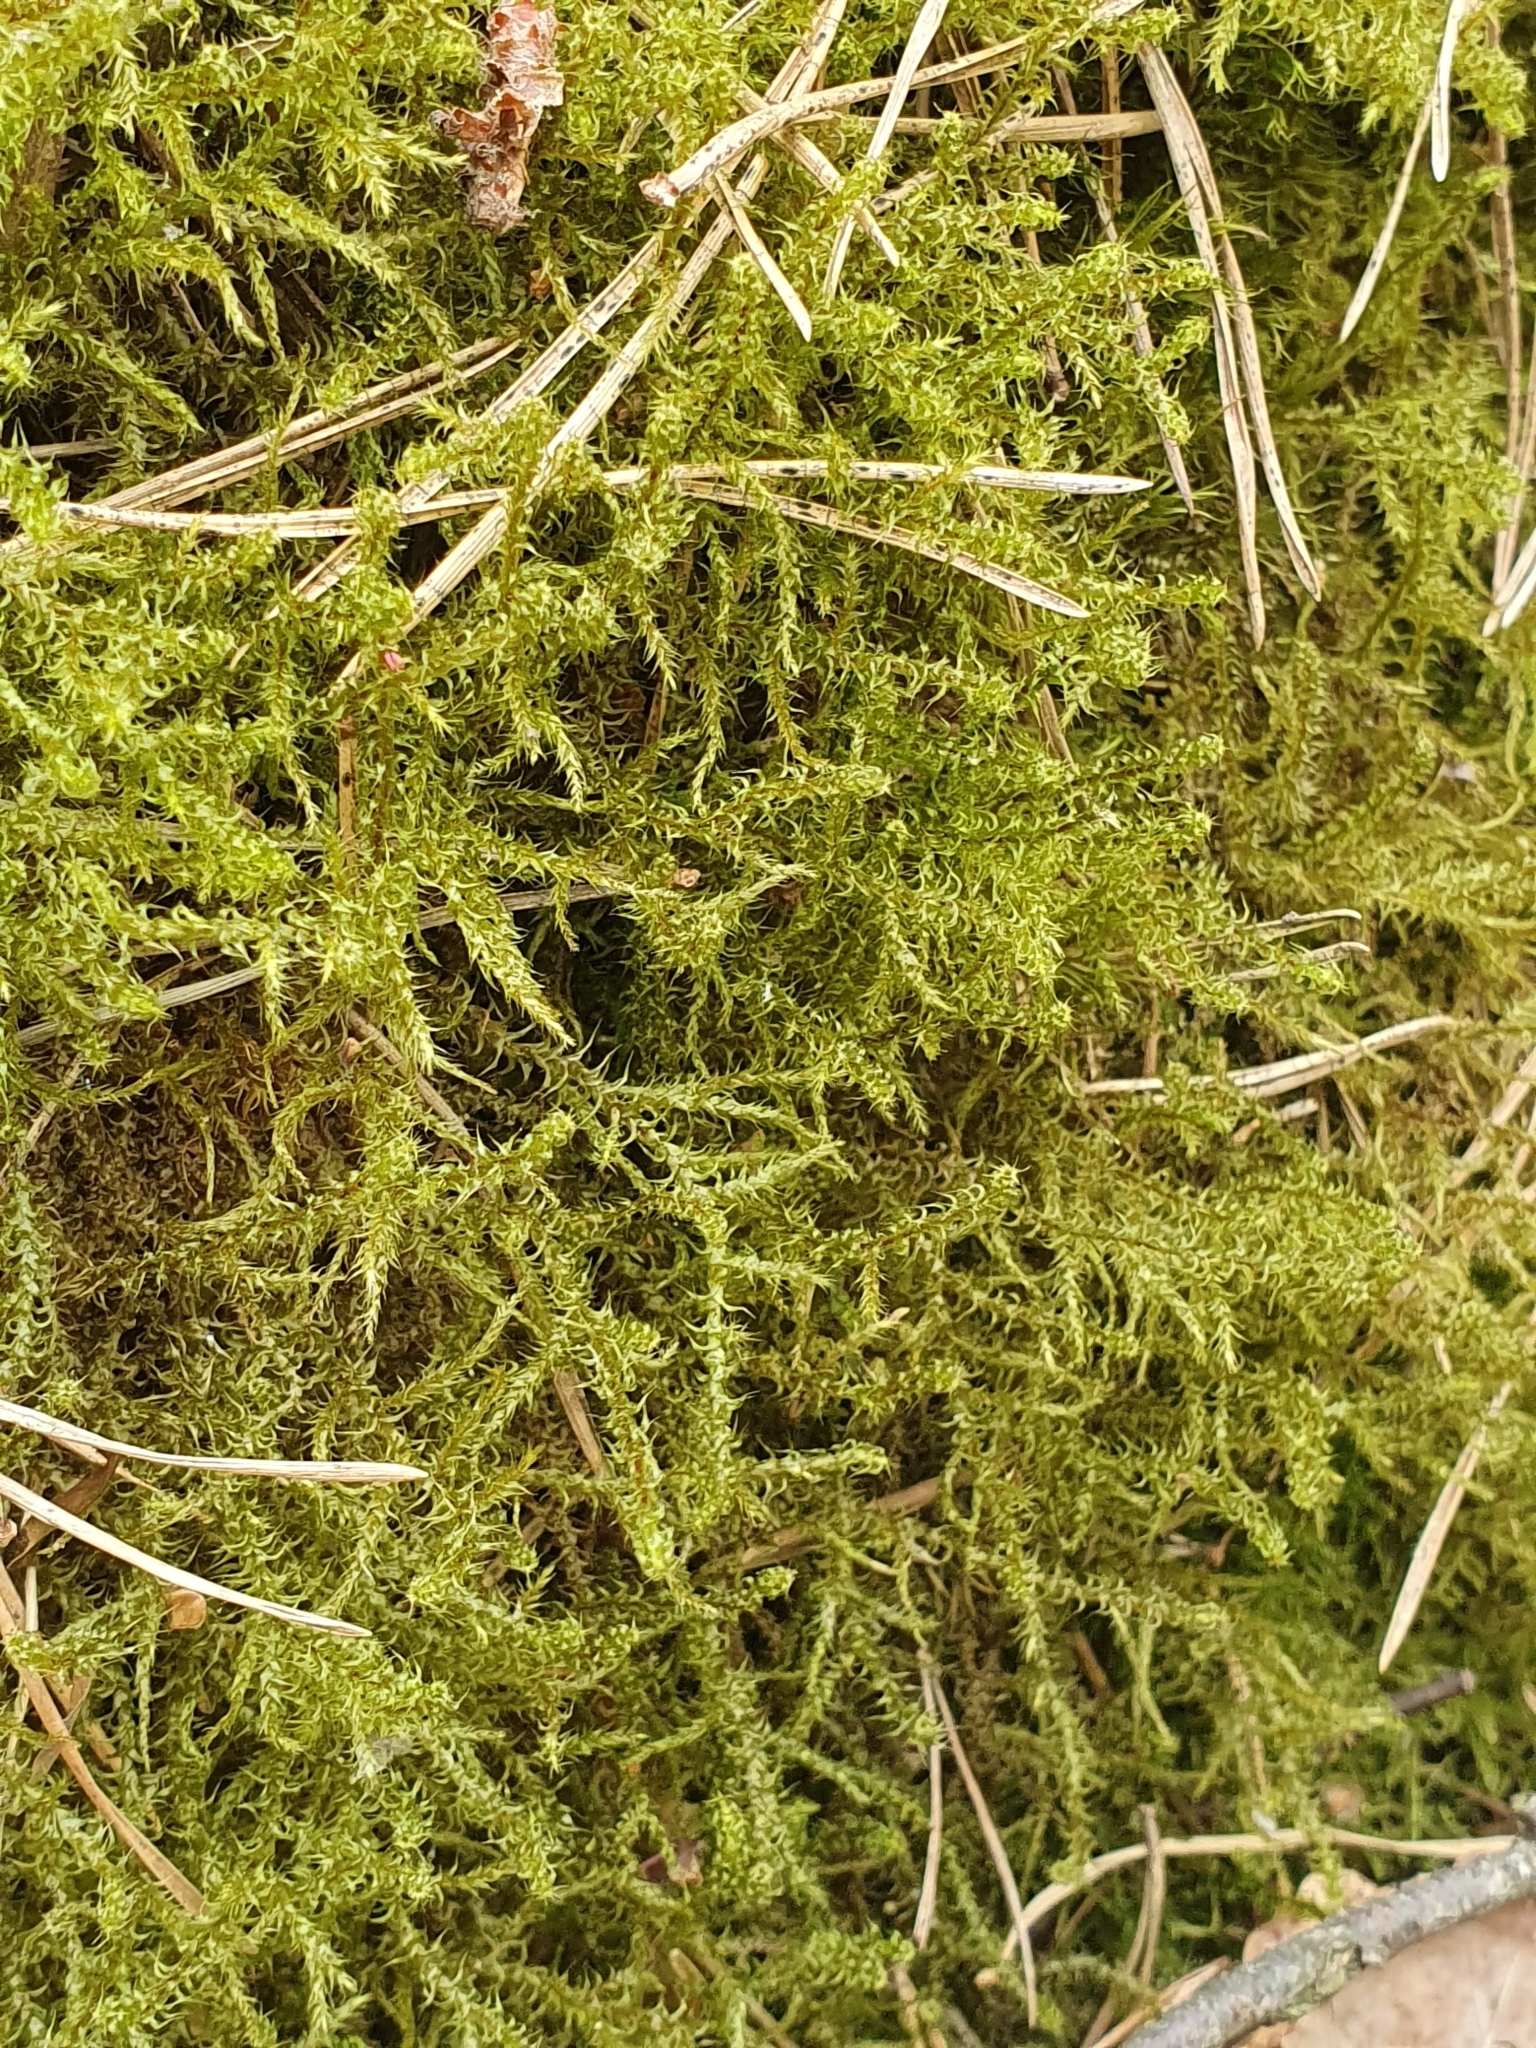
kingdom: Plantae
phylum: Bryophyta
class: Bryopsida
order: Hypnales
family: Hylocomiaceae
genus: Rhytidiadelphus
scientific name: Rhytidiadelphus squarrosus
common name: Springy turf-moss
